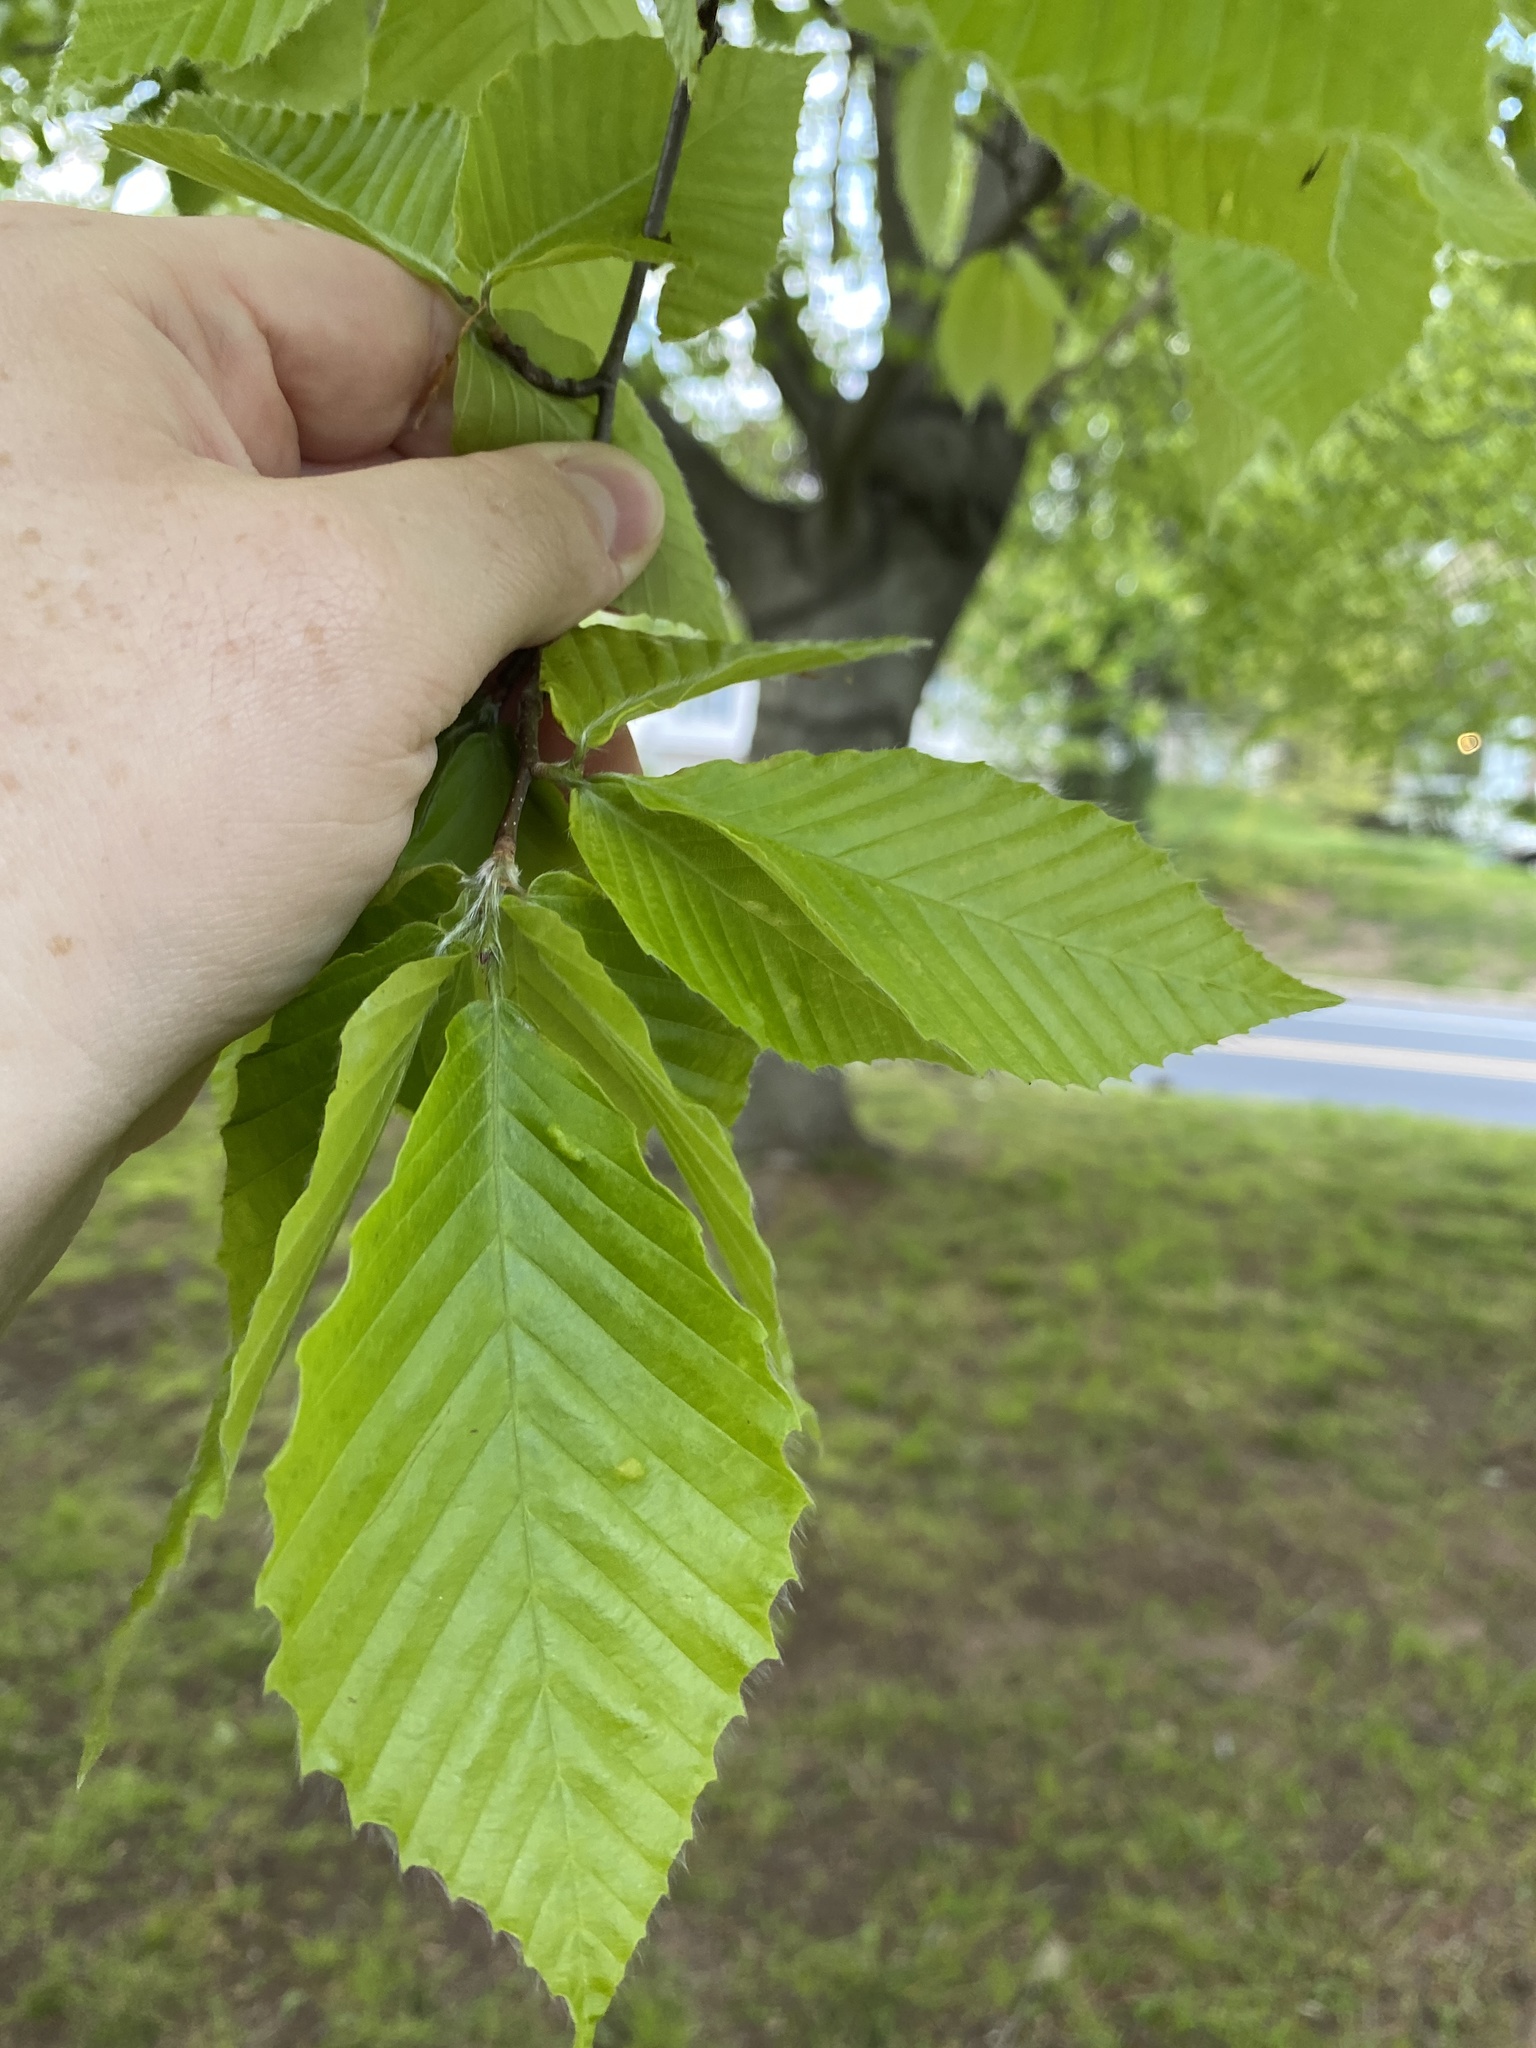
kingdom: Plantae
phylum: Tracheophyta
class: Magnoliopsida
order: Fagales
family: Fagaceae
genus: Fagus
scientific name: Fagus grandifolia
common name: American beech
